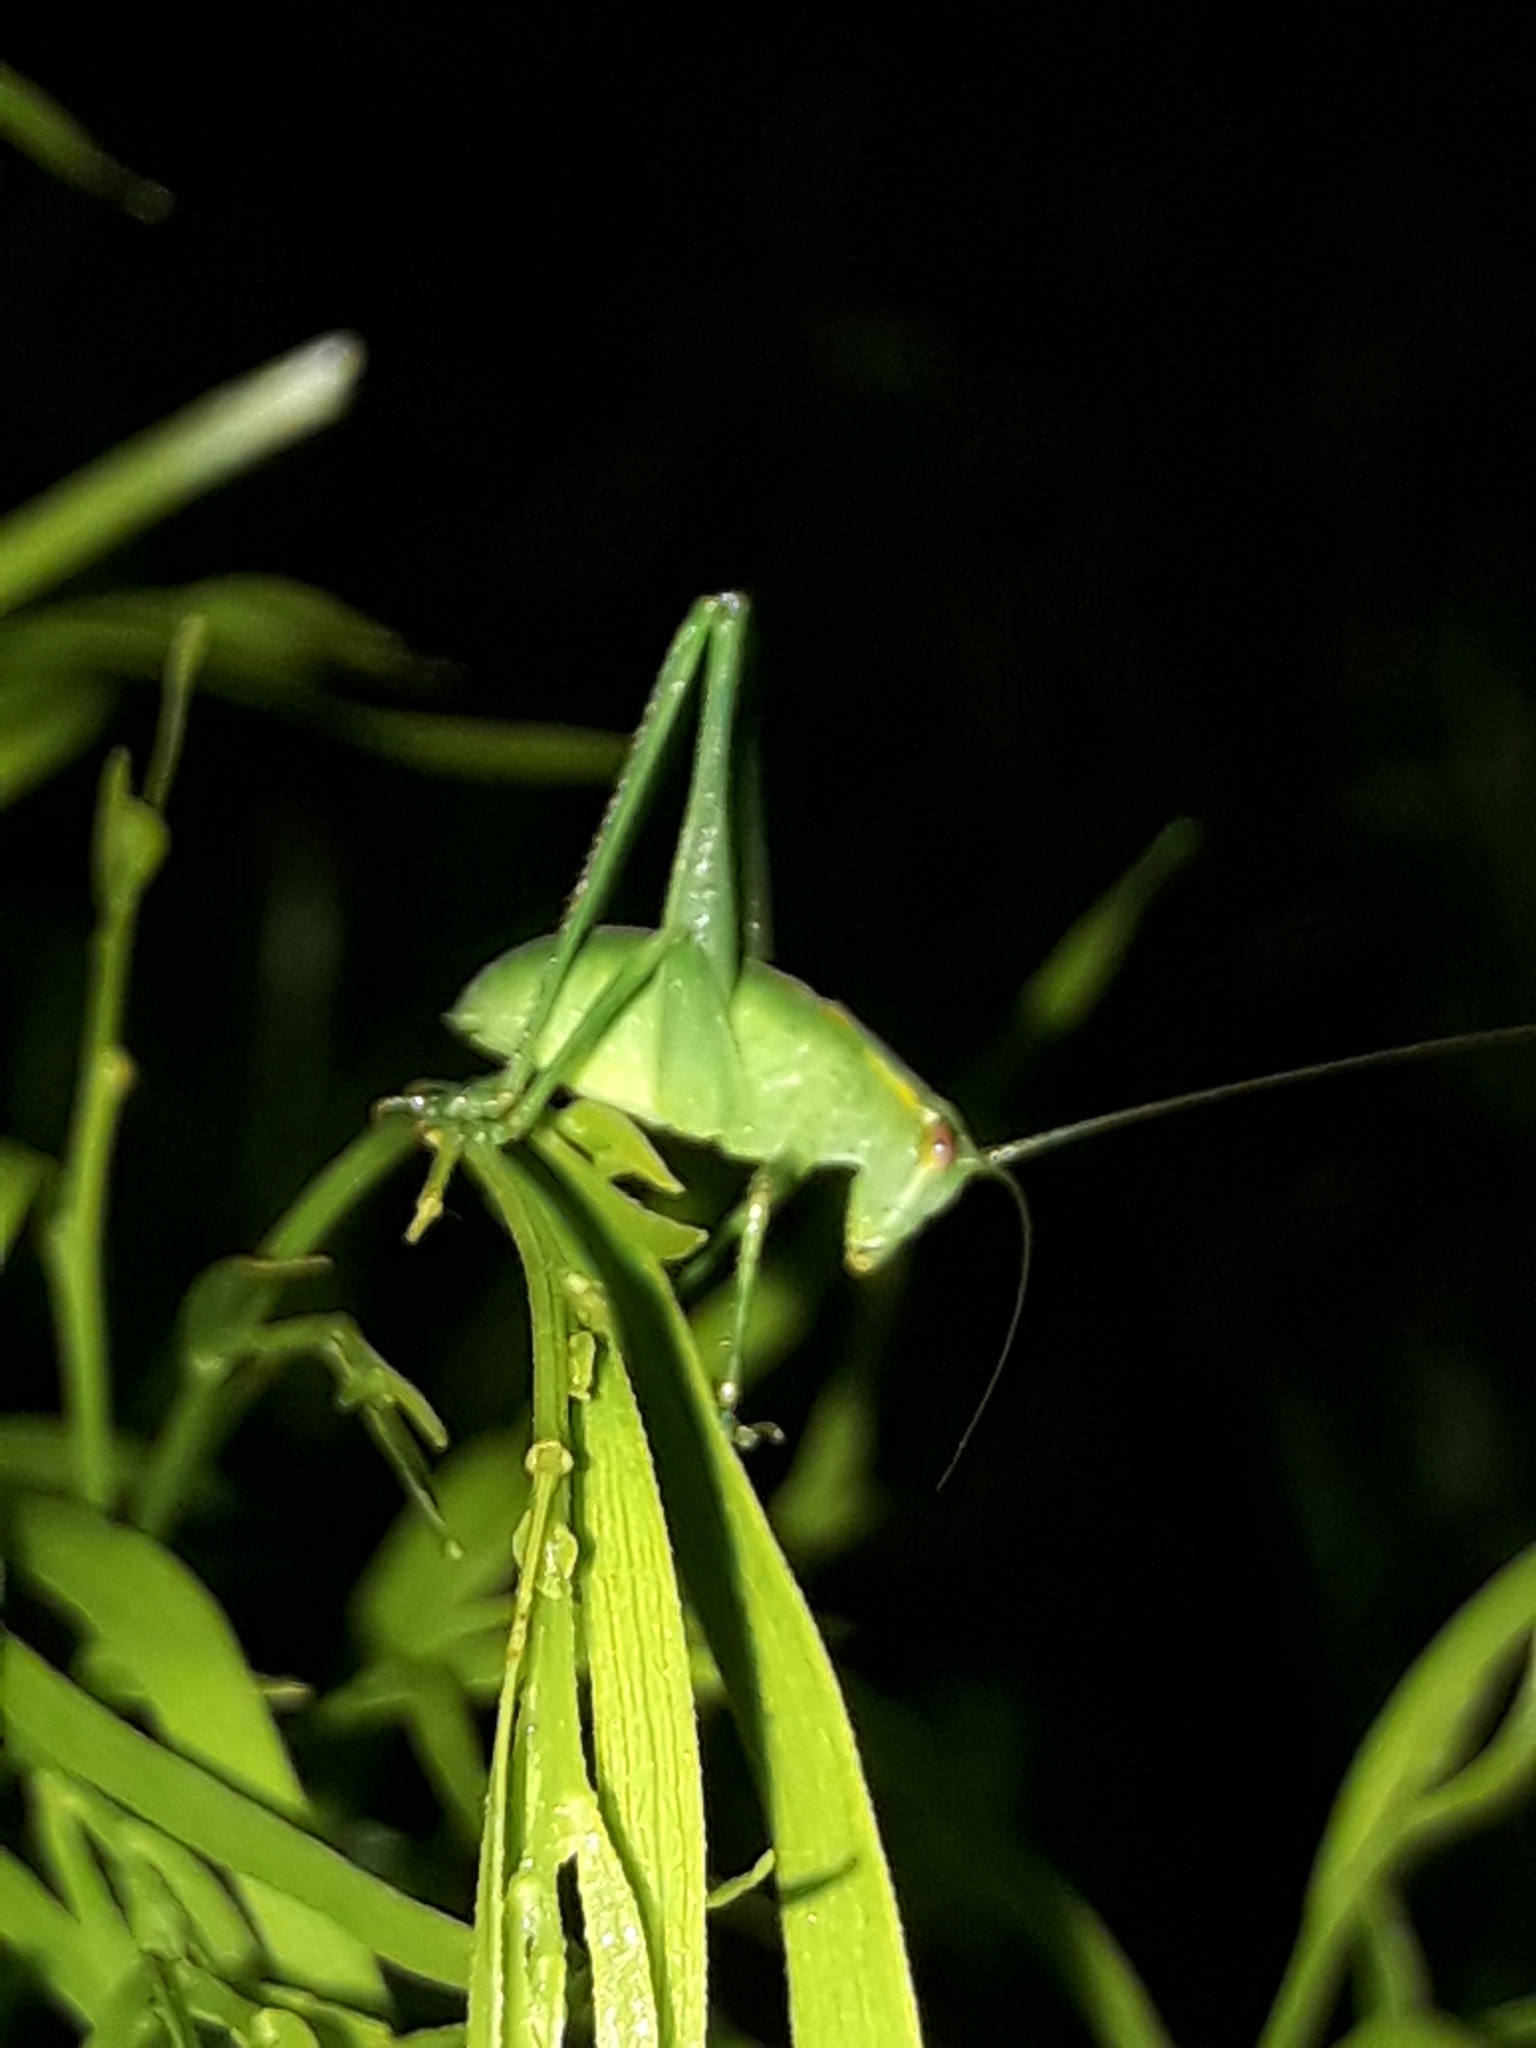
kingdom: Animalia
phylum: Arthropoda
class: Insecta
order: Orthoptera
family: Tettigoniidae
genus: Caedicia
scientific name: Caedicia simplex
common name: Common garden katydid
